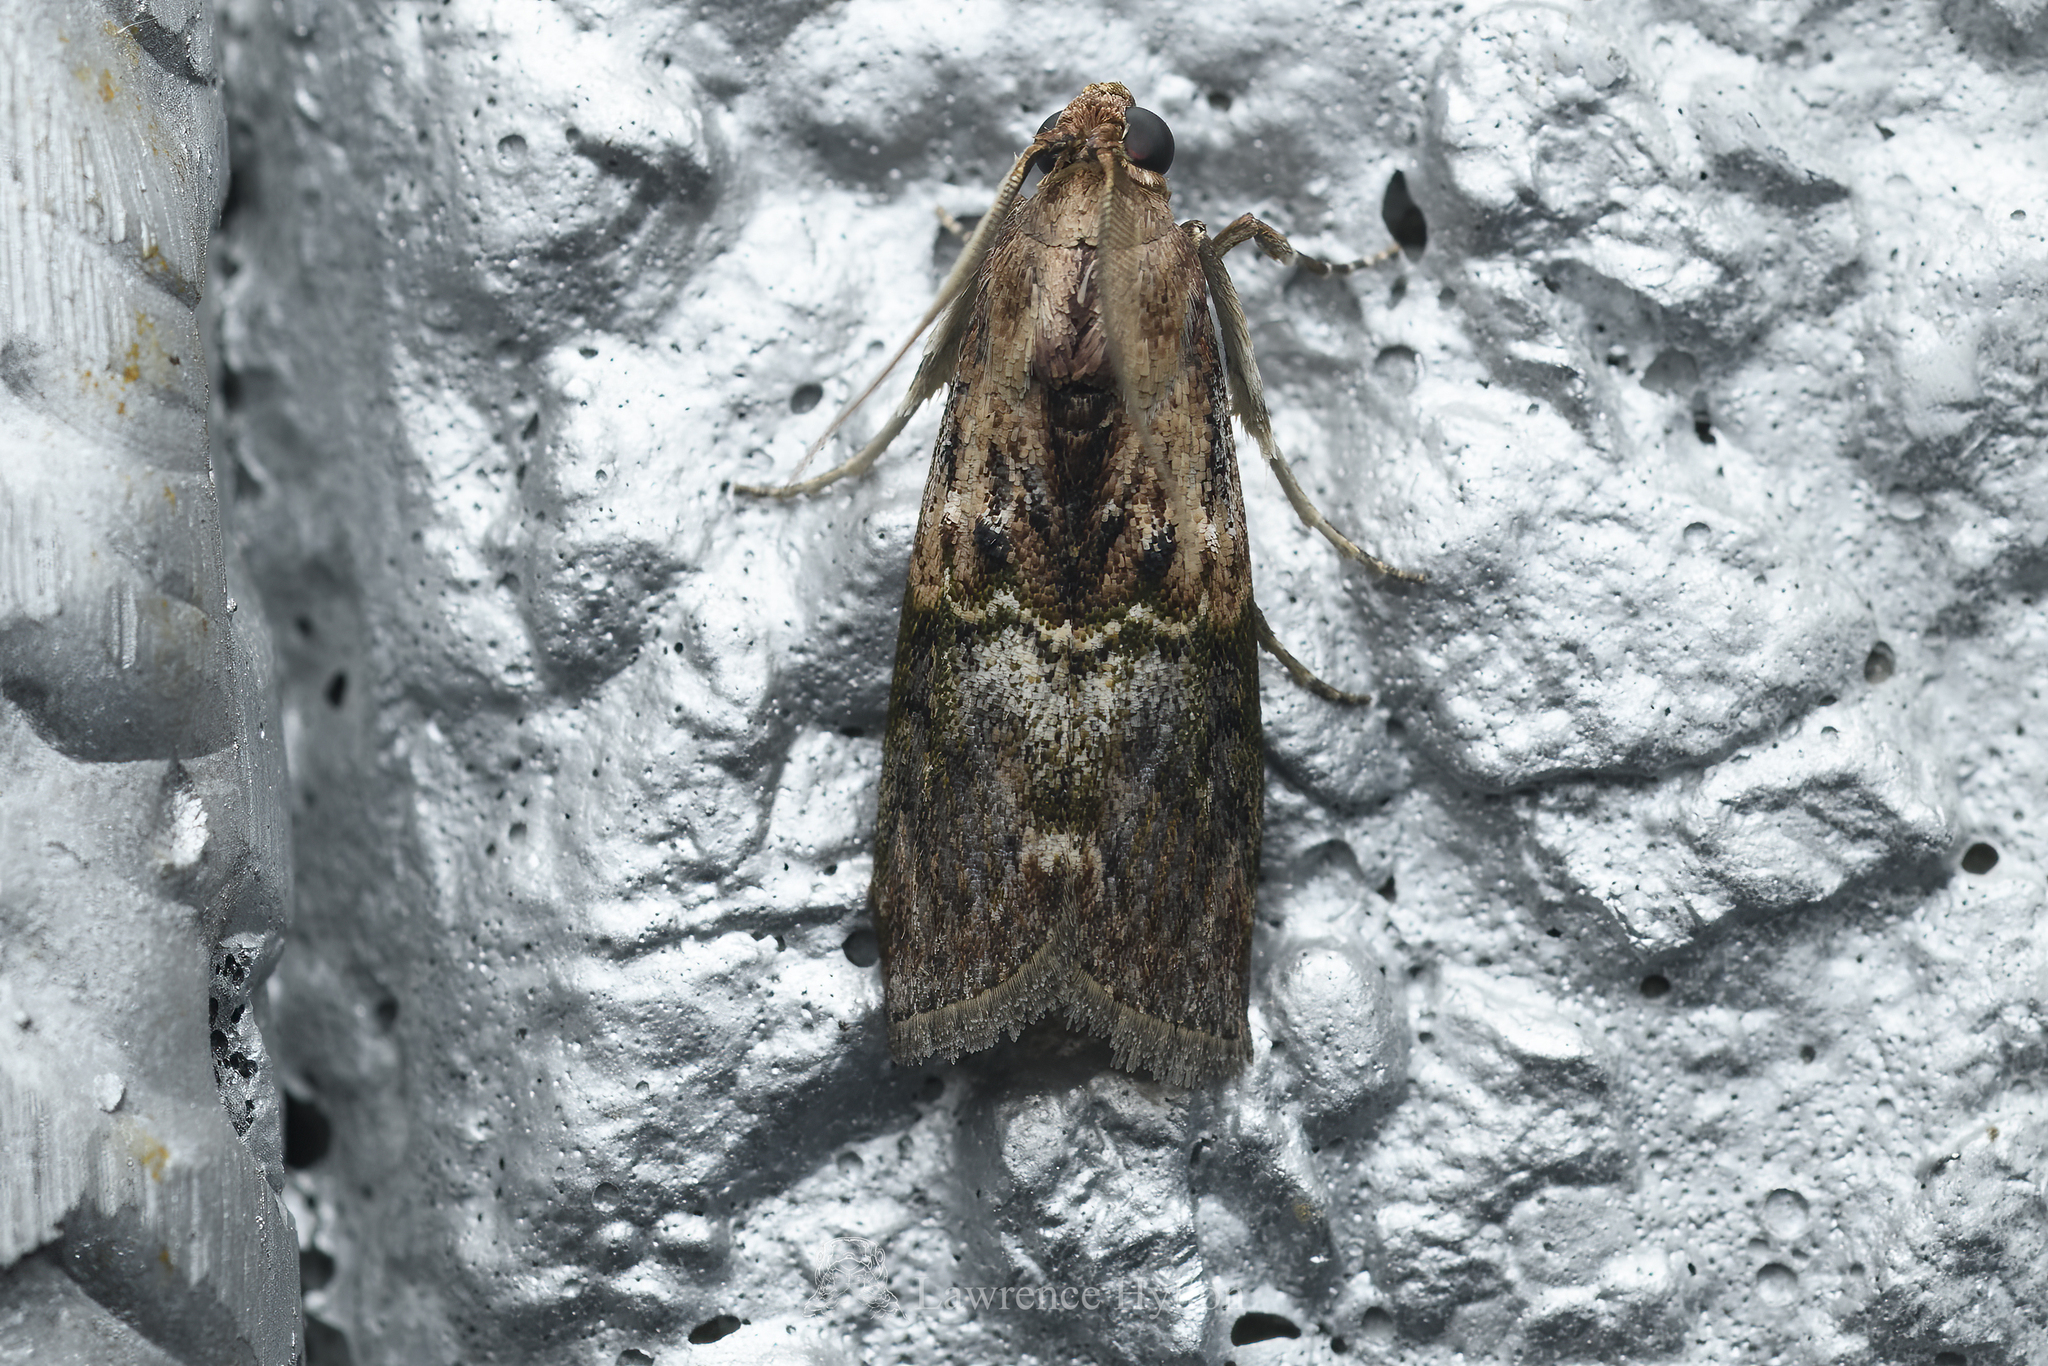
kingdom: Animalia
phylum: Arthropoda
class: Insecta
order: Lepidoptera
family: Pyralidae
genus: Ceroprepes
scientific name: Ceroprepes pulvillella
